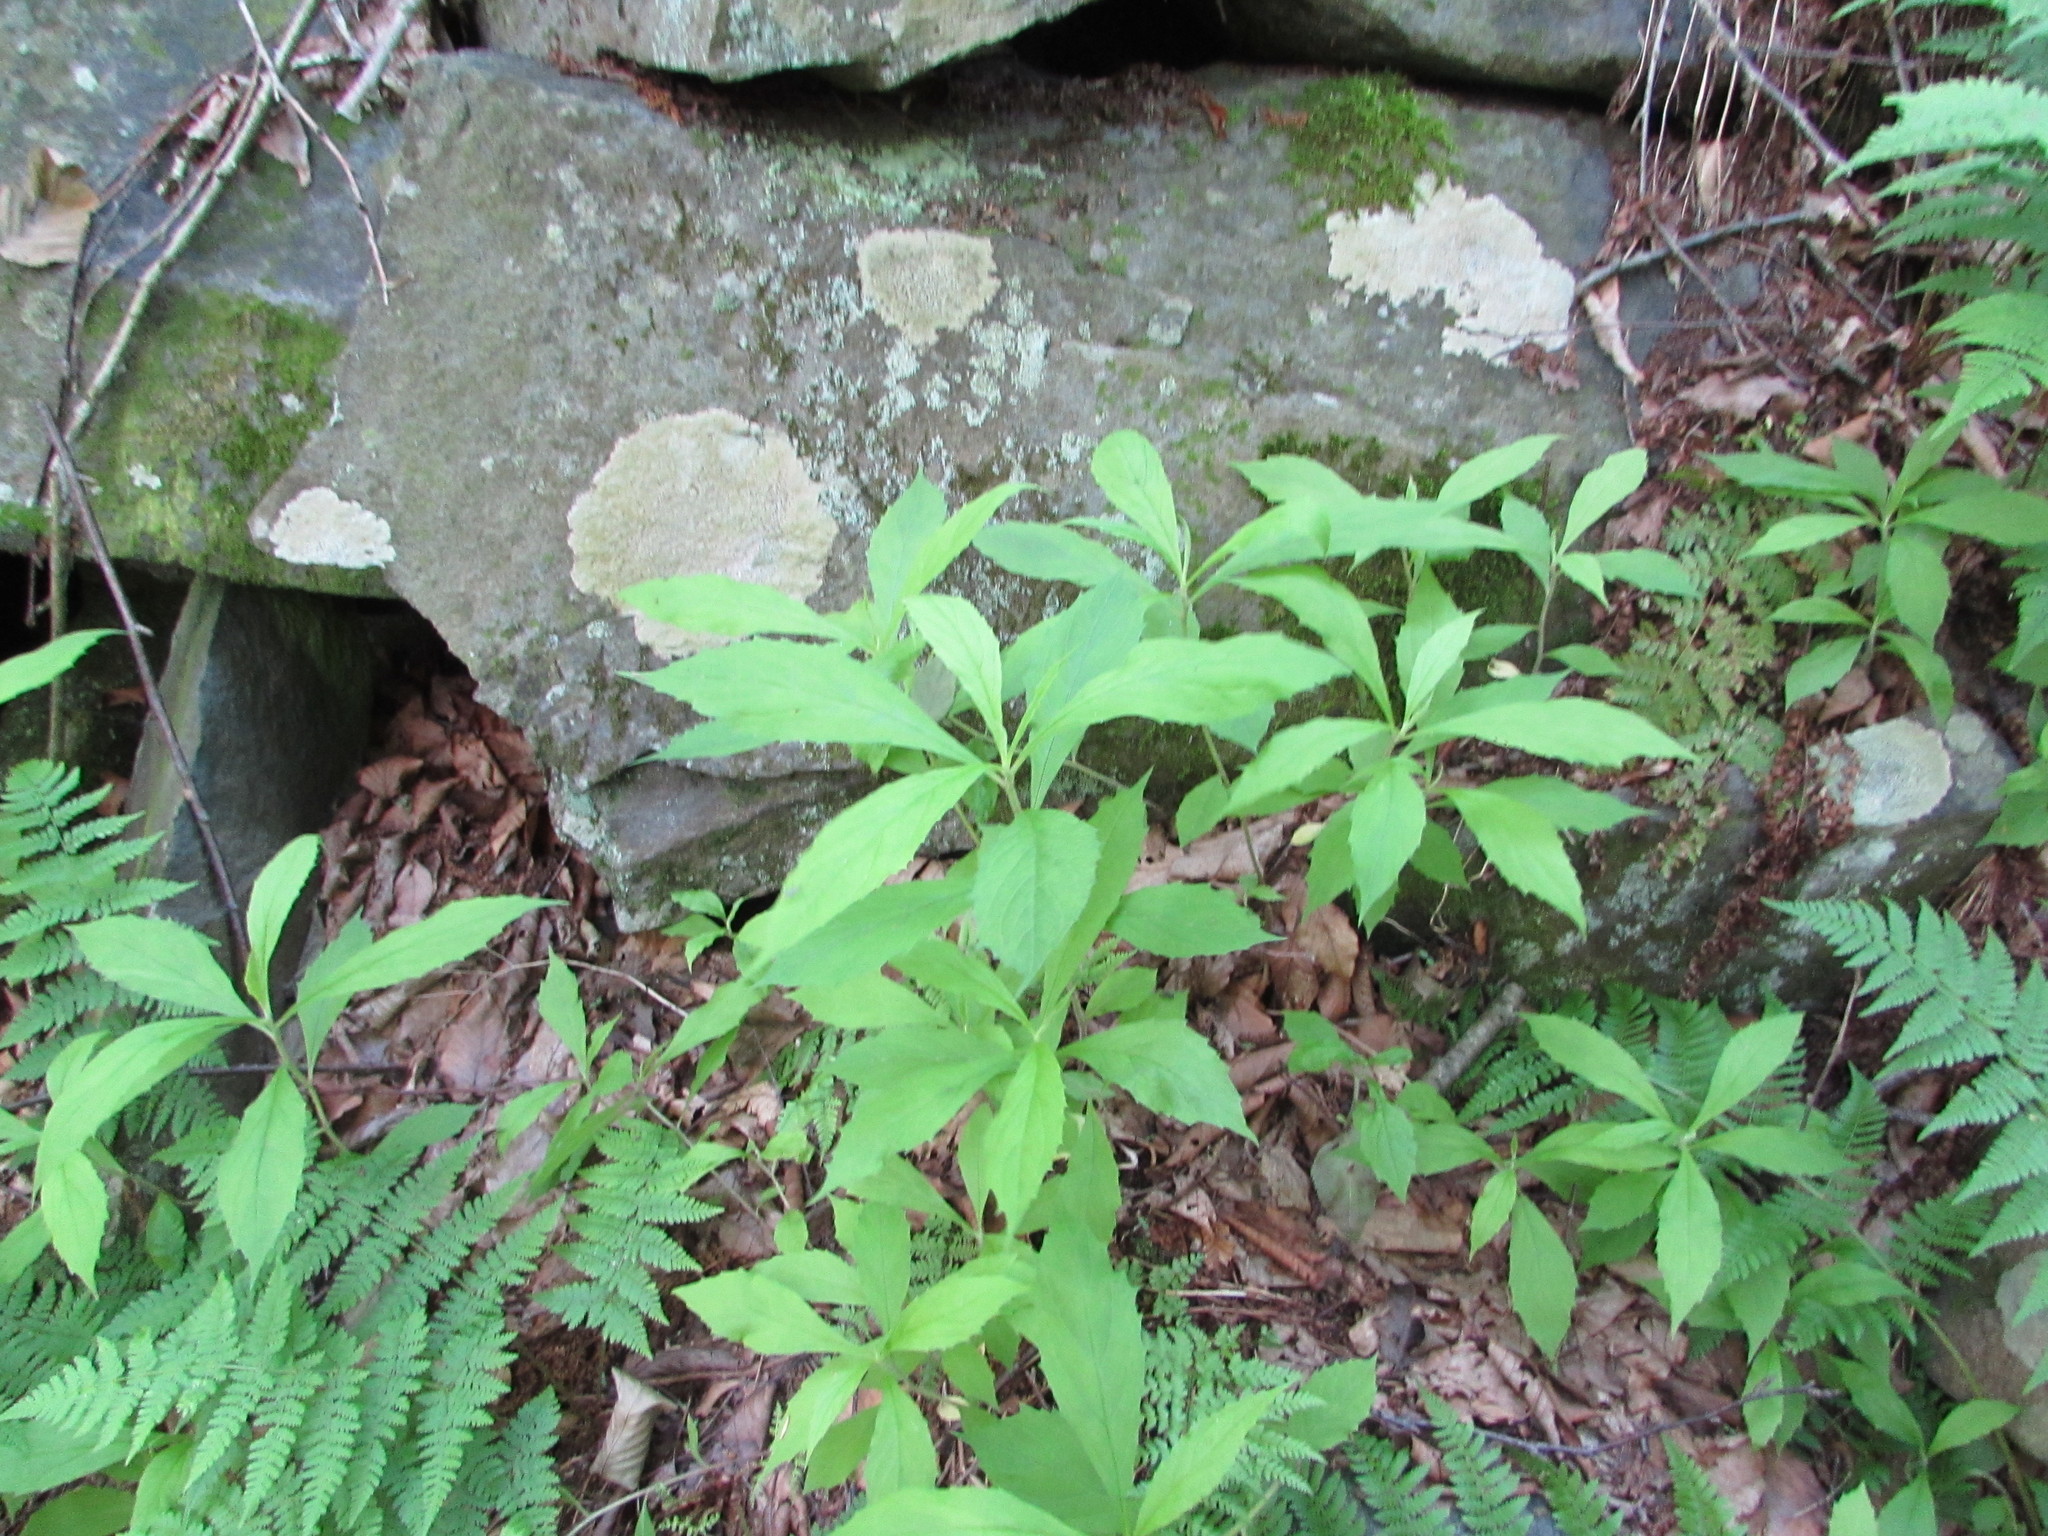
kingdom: Plantae
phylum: Tracheophyta
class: Magnoliopsida
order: Asterales
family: Asteraceae
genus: Oclemena
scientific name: Oclemena acuminata
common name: Mountain aster
